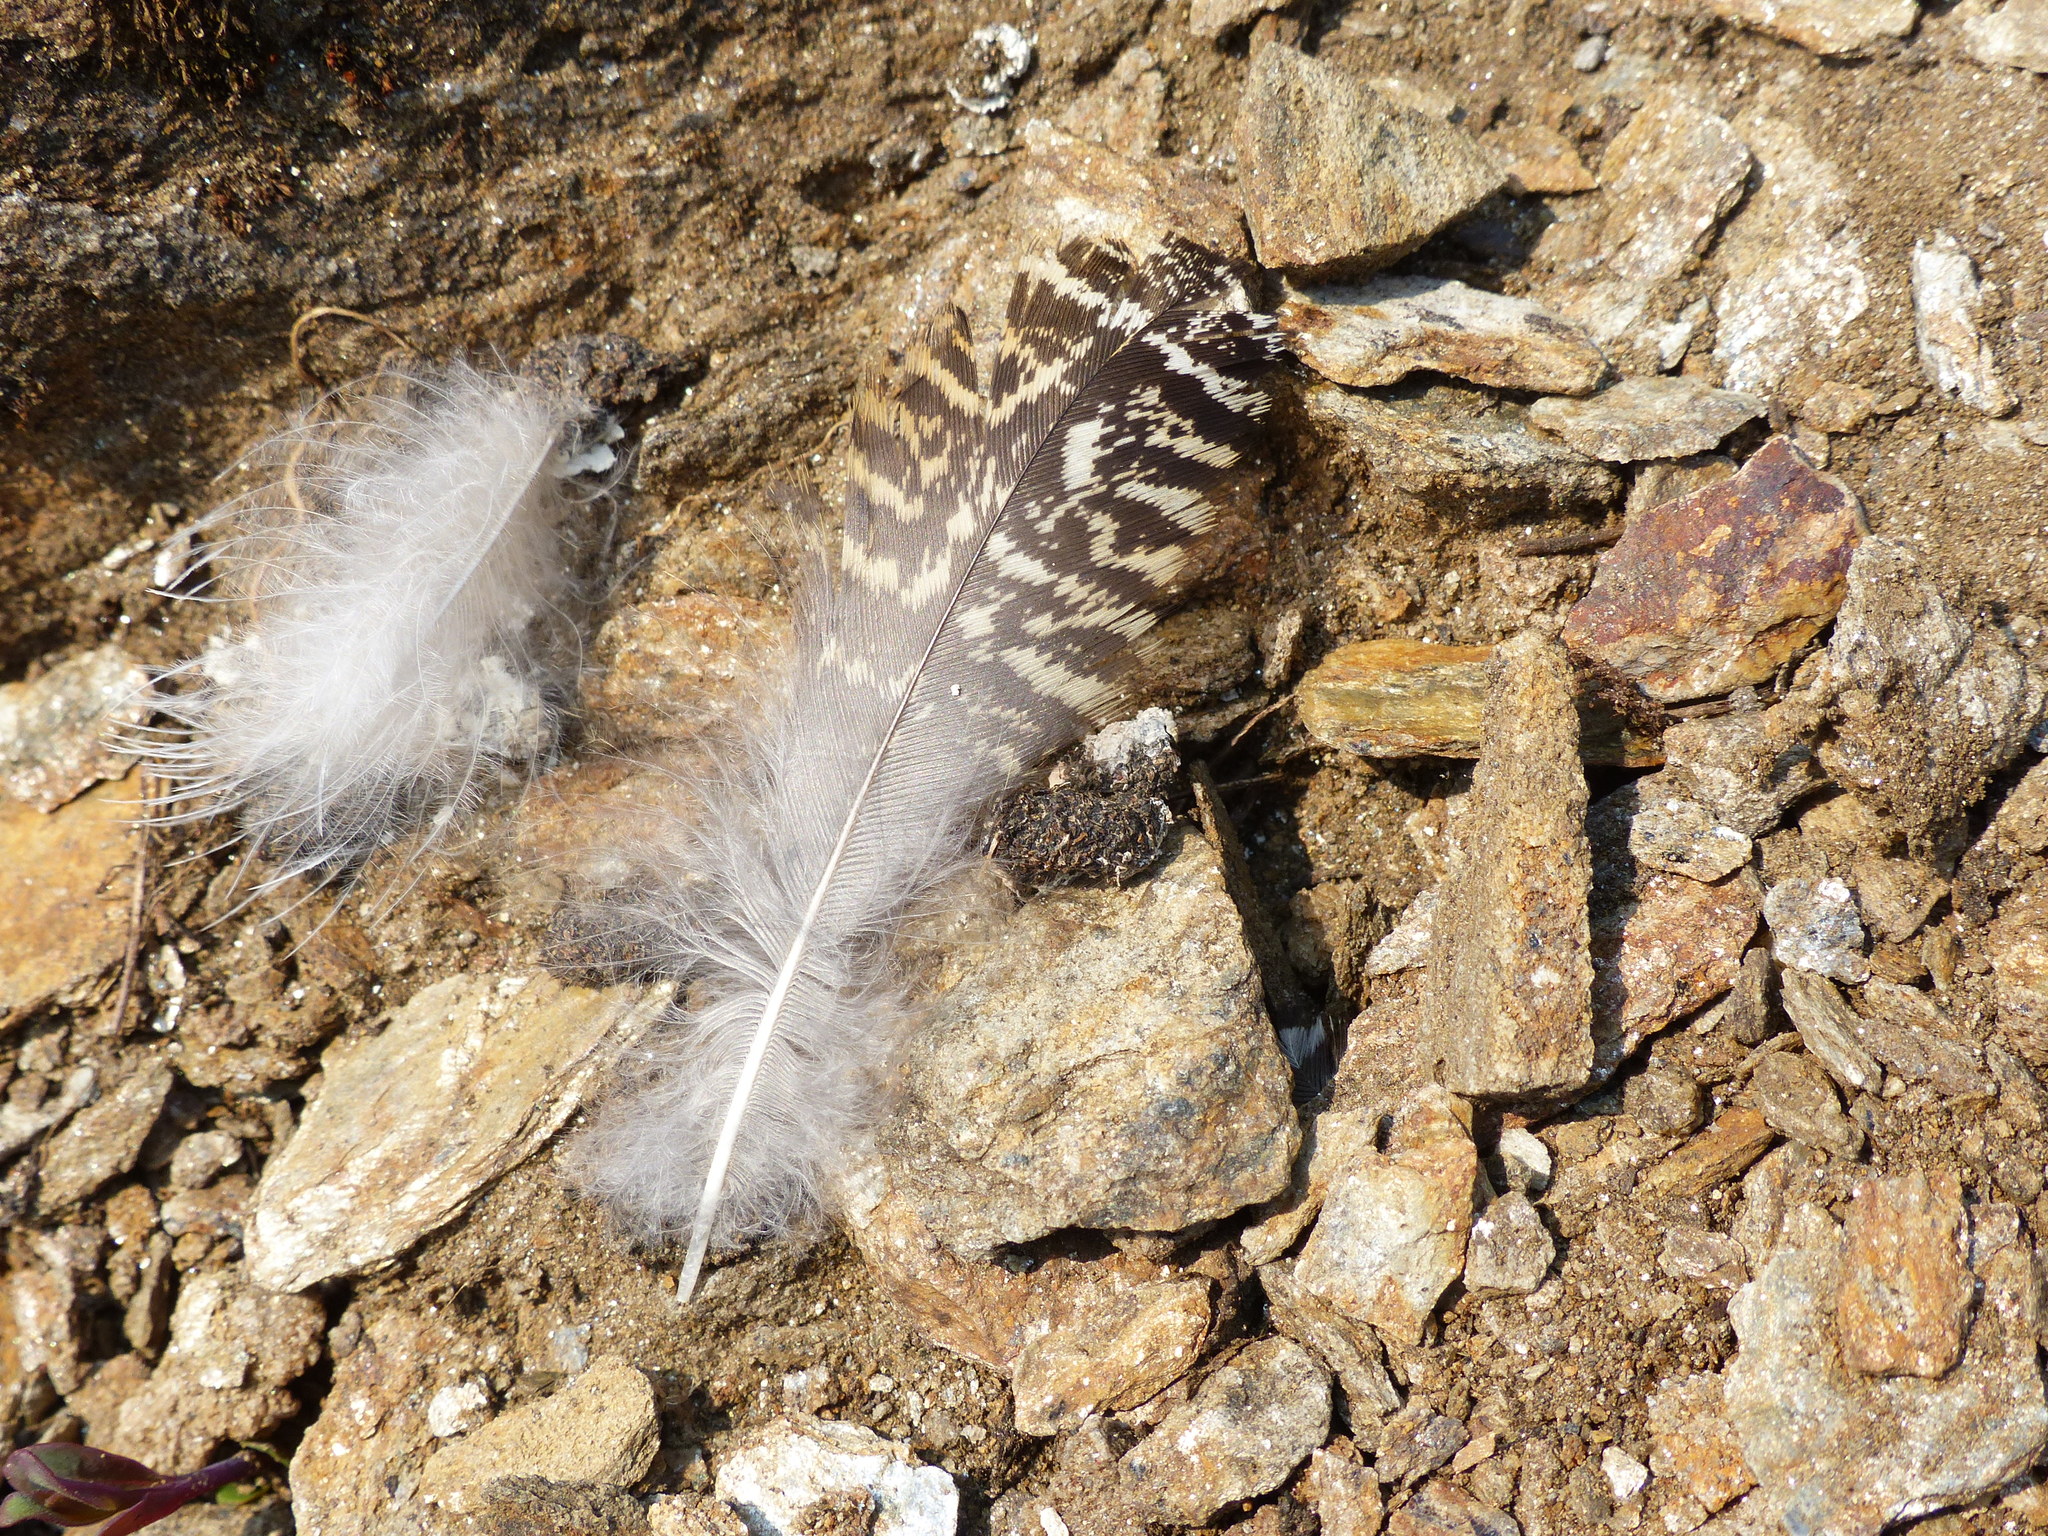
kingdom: Animalia
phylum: Chordata
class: Aves
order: Galliformes
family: Phasianidae
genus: Lagopus
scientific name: Lagopus leucura
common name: White-tailed ptarmigan
